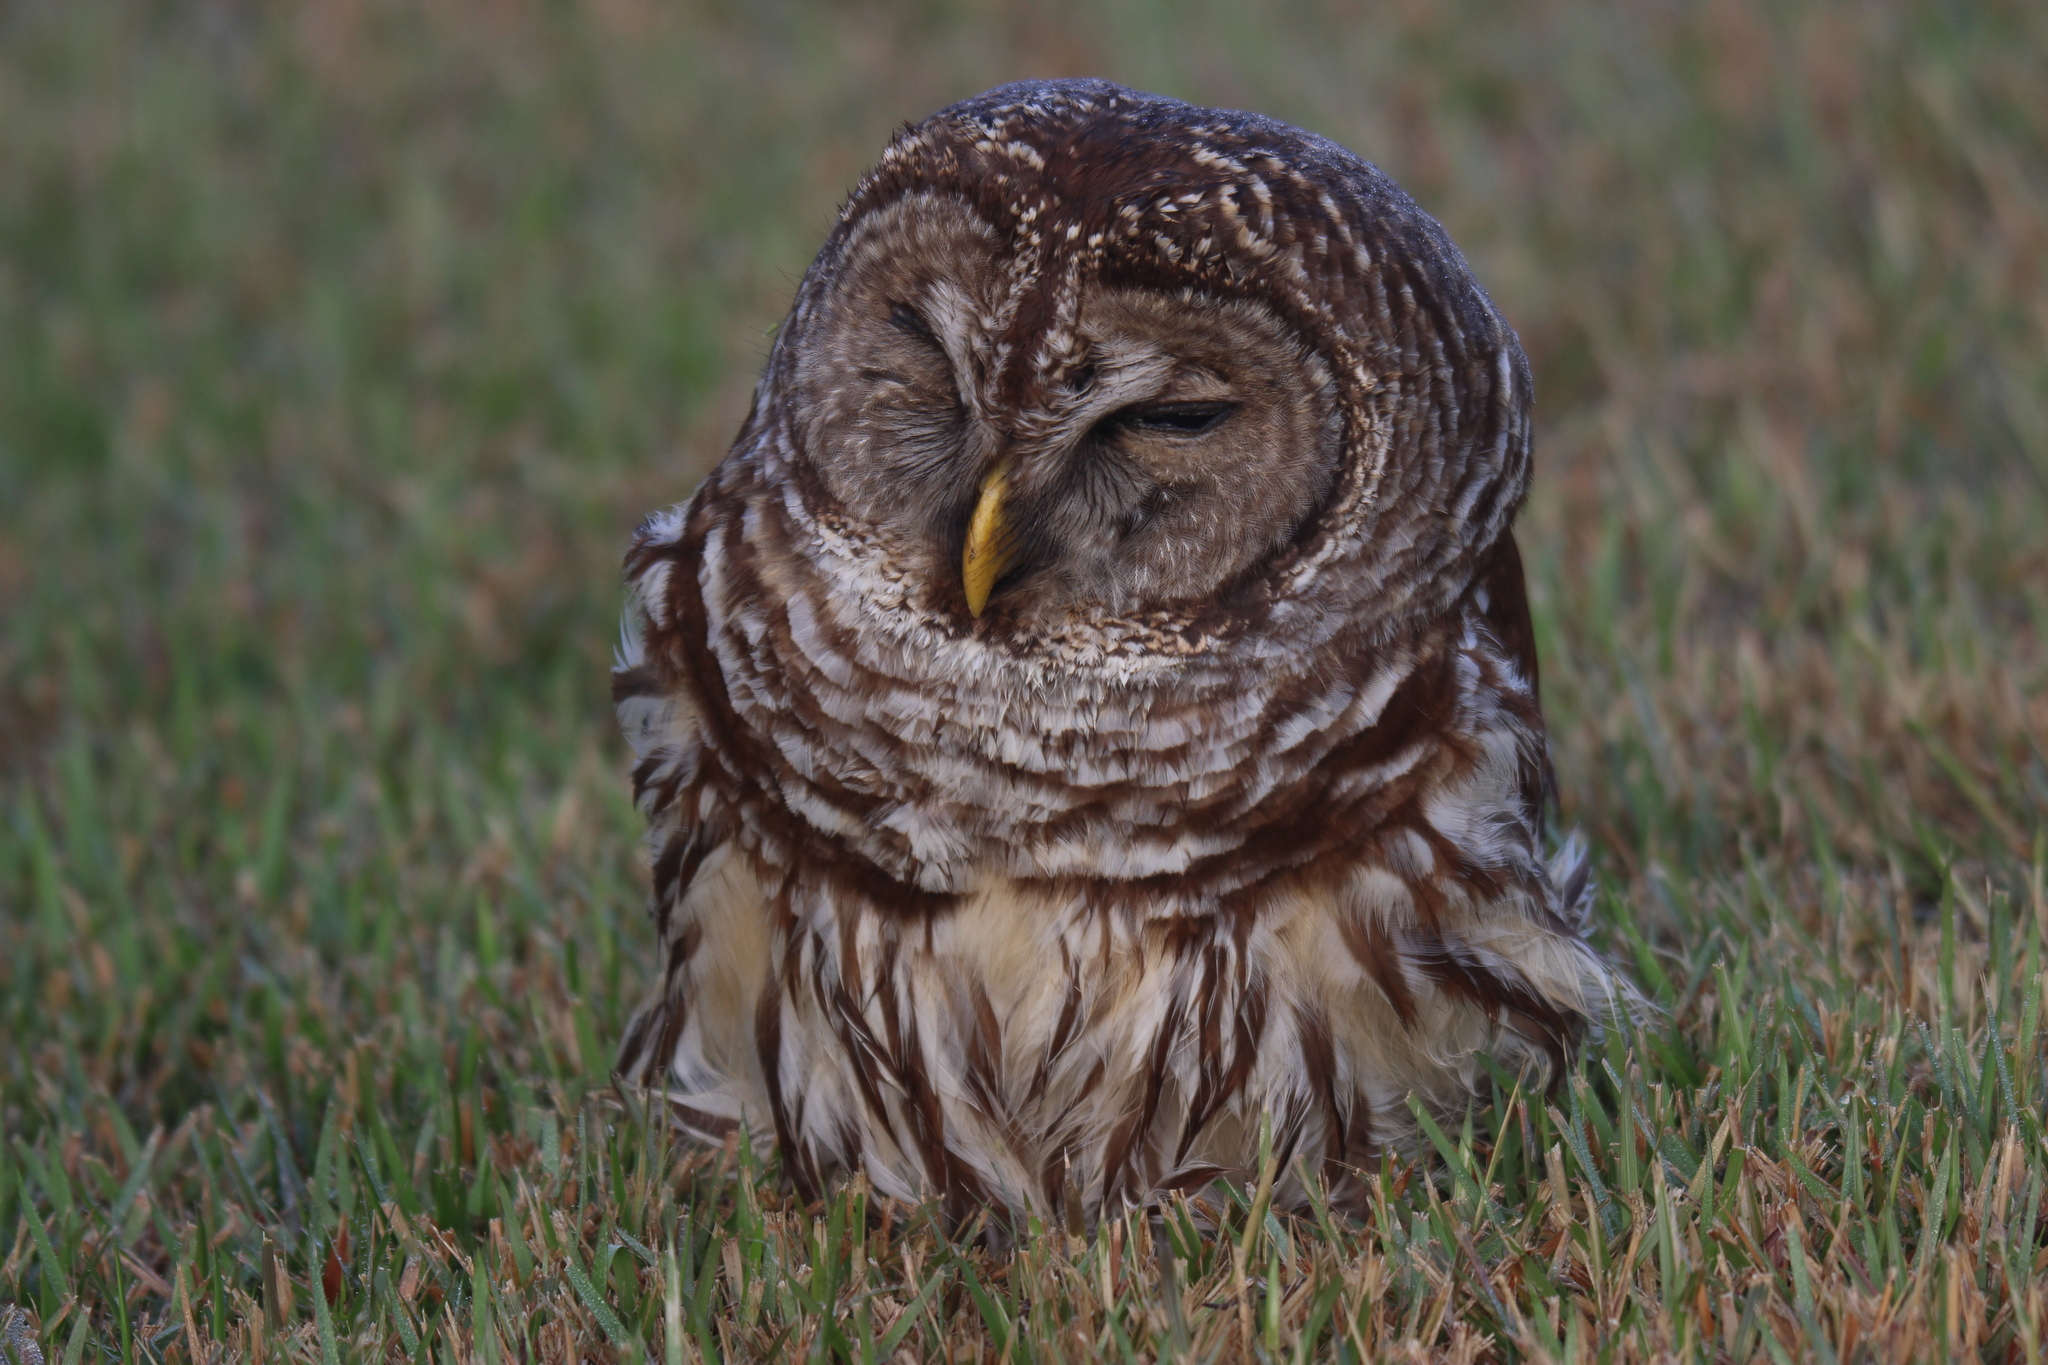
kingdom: Animalia
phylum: Chordata
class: Aves
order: Strigiformes
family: Strigidae
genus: Strix
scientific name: Strix varia
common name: Barred owl
